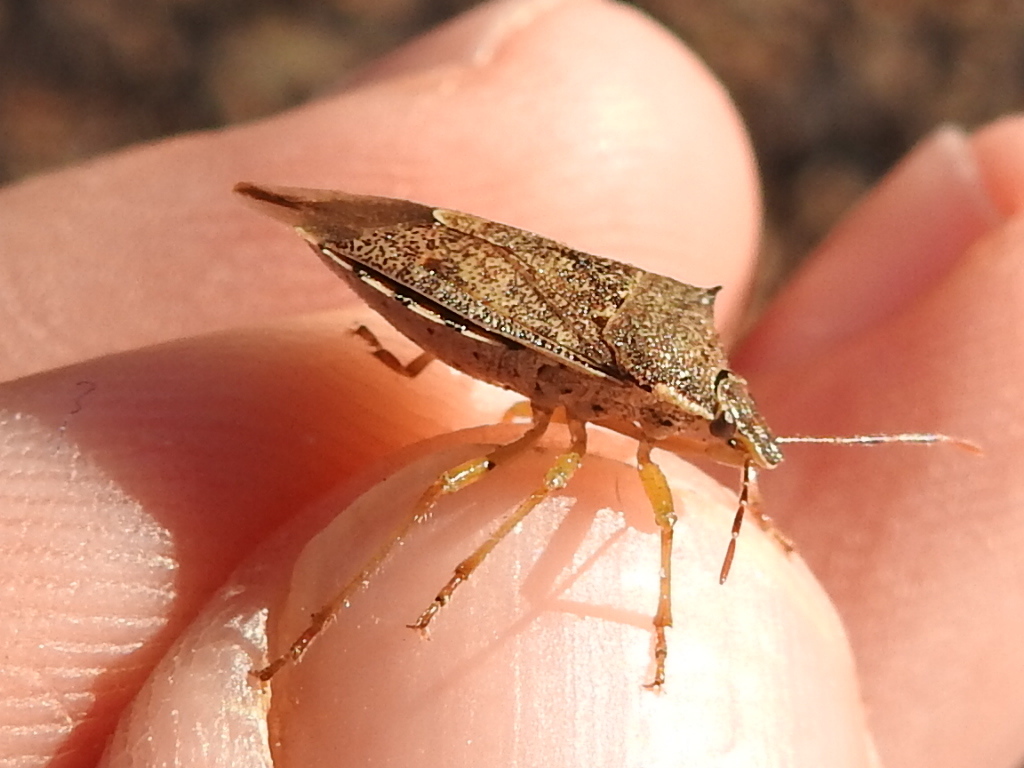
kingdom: Animalia
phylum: Arthropoda
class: Insecta
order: Hemiptera
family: Pentatomidae
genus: Podisus
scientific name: Podisus maculiventris
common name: Spined soldier bug
